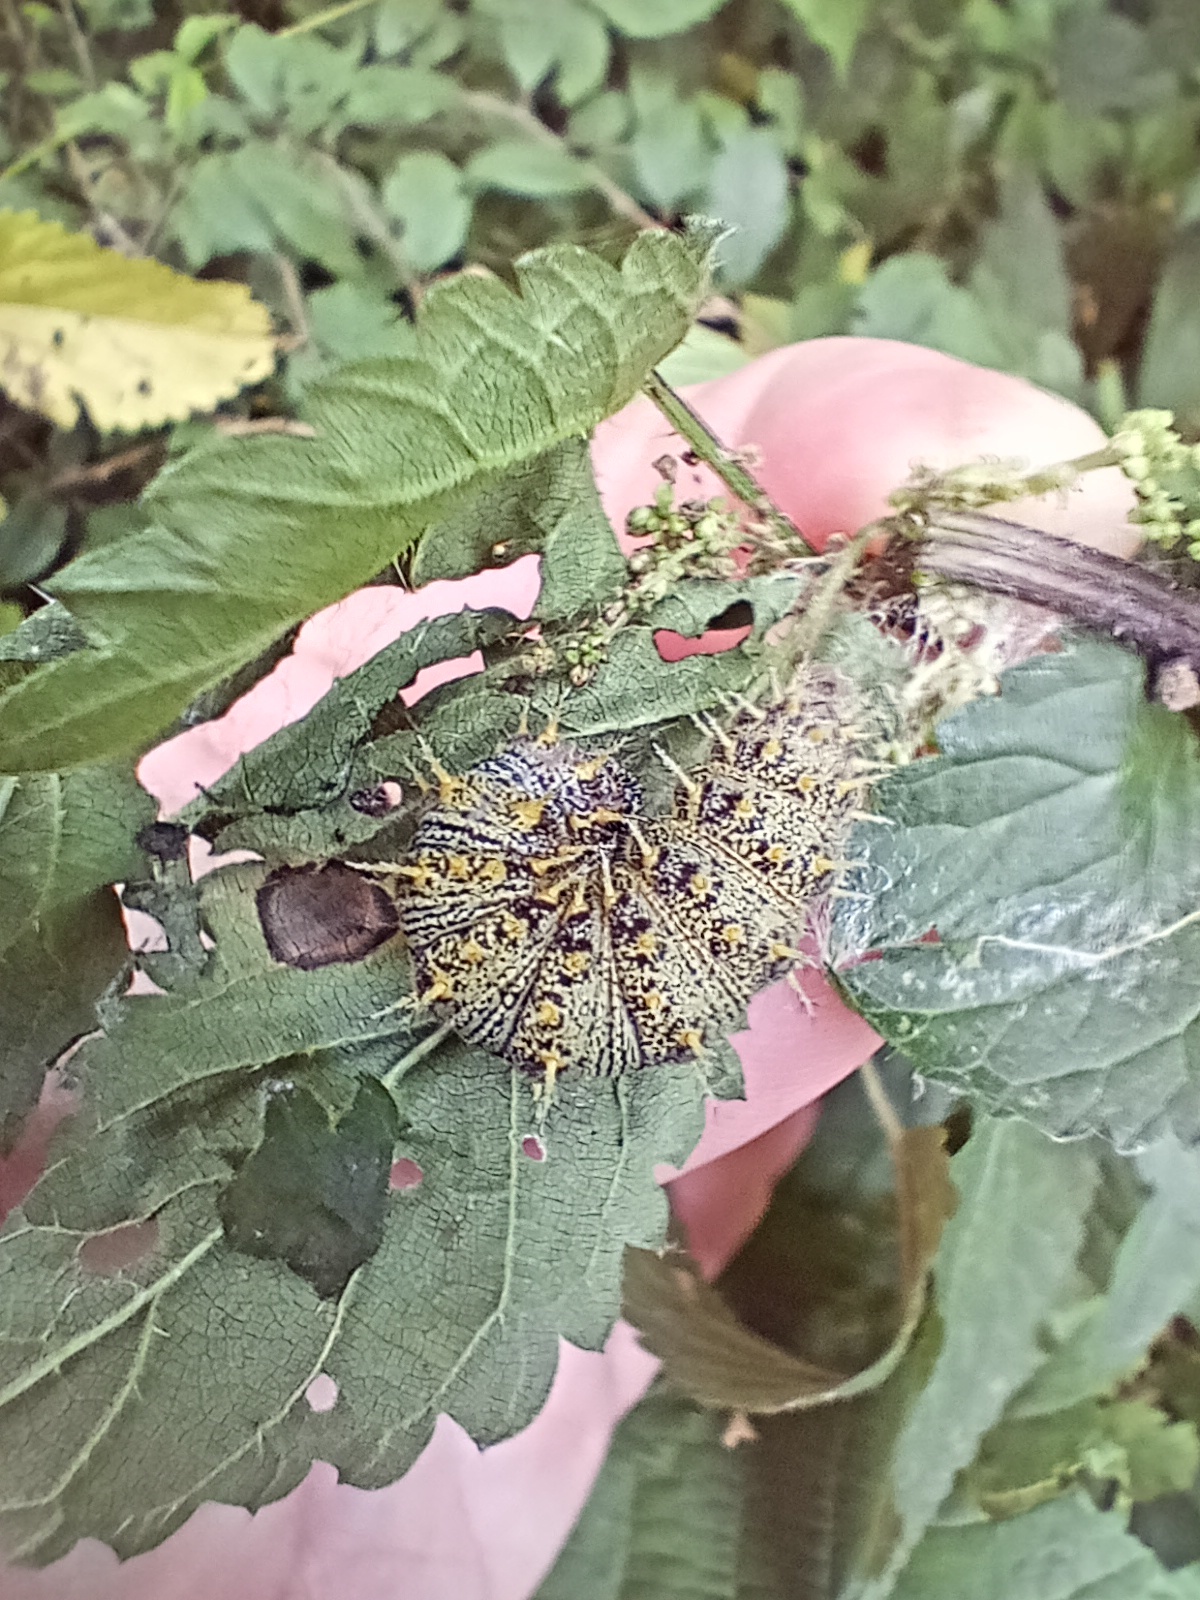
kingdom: Animalia
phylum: Arthropoda
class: Insecta
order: Lepidoptera
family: Nymphalidae
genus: Vanessa
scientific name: Vanessa atalanta
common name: Red admiral
